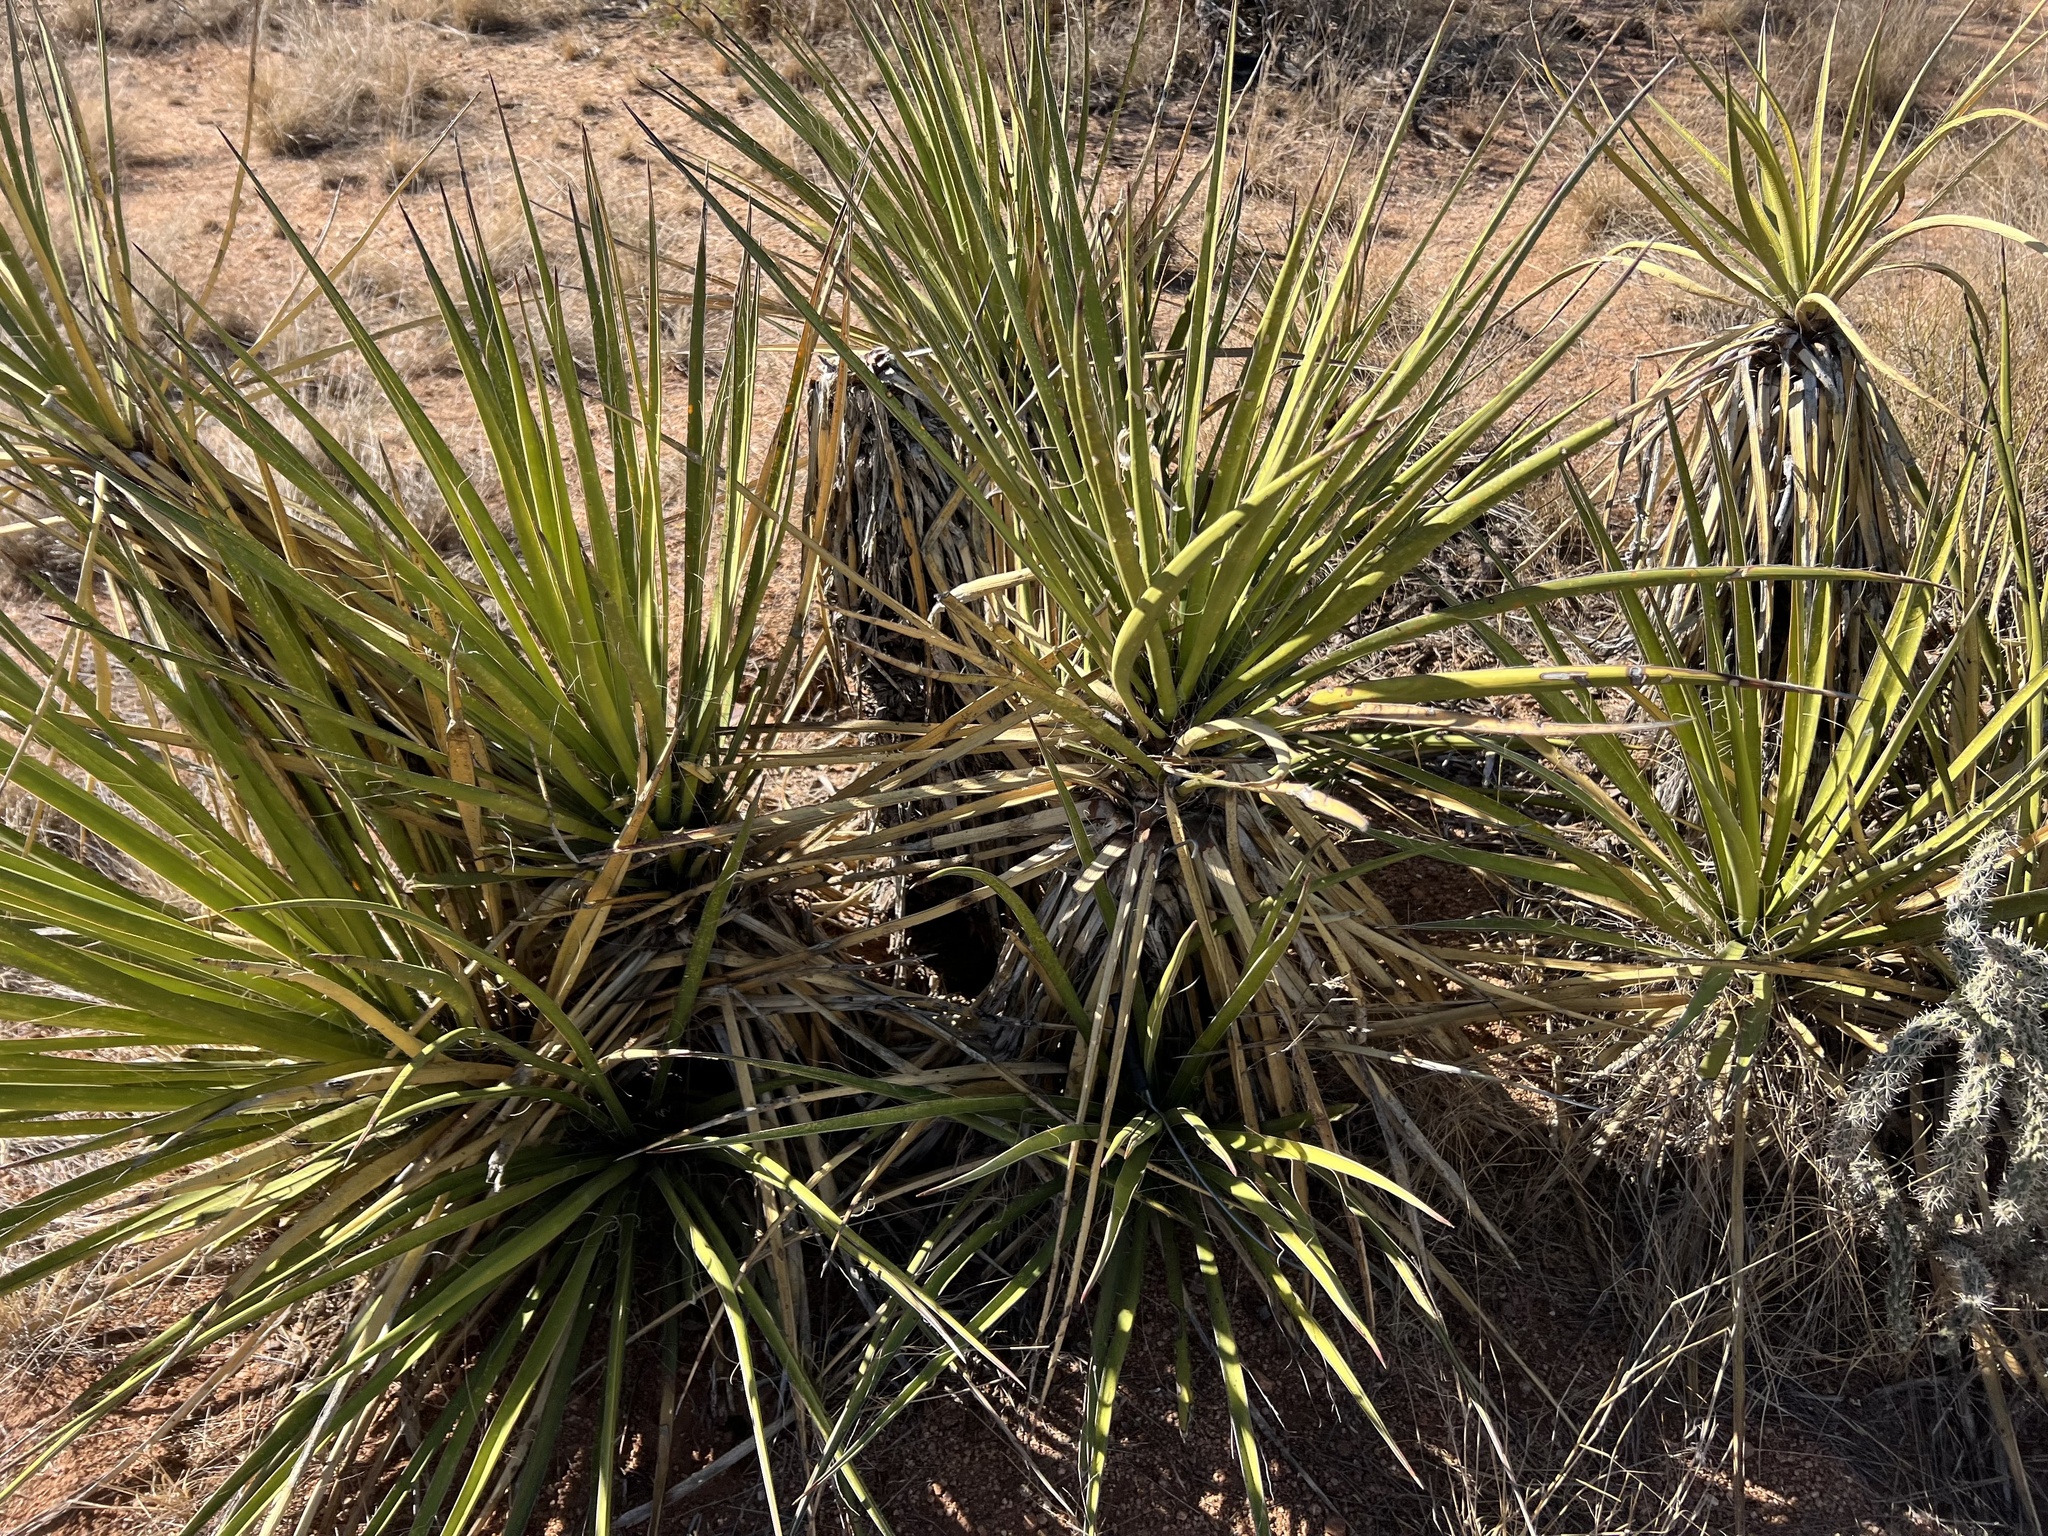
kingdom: Plantae
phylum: Tracheophyta
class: Liliopsida
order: Asparagales
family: Asparagaceae
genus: Yucca
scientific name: Yucca baccata
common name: Banana yucca
